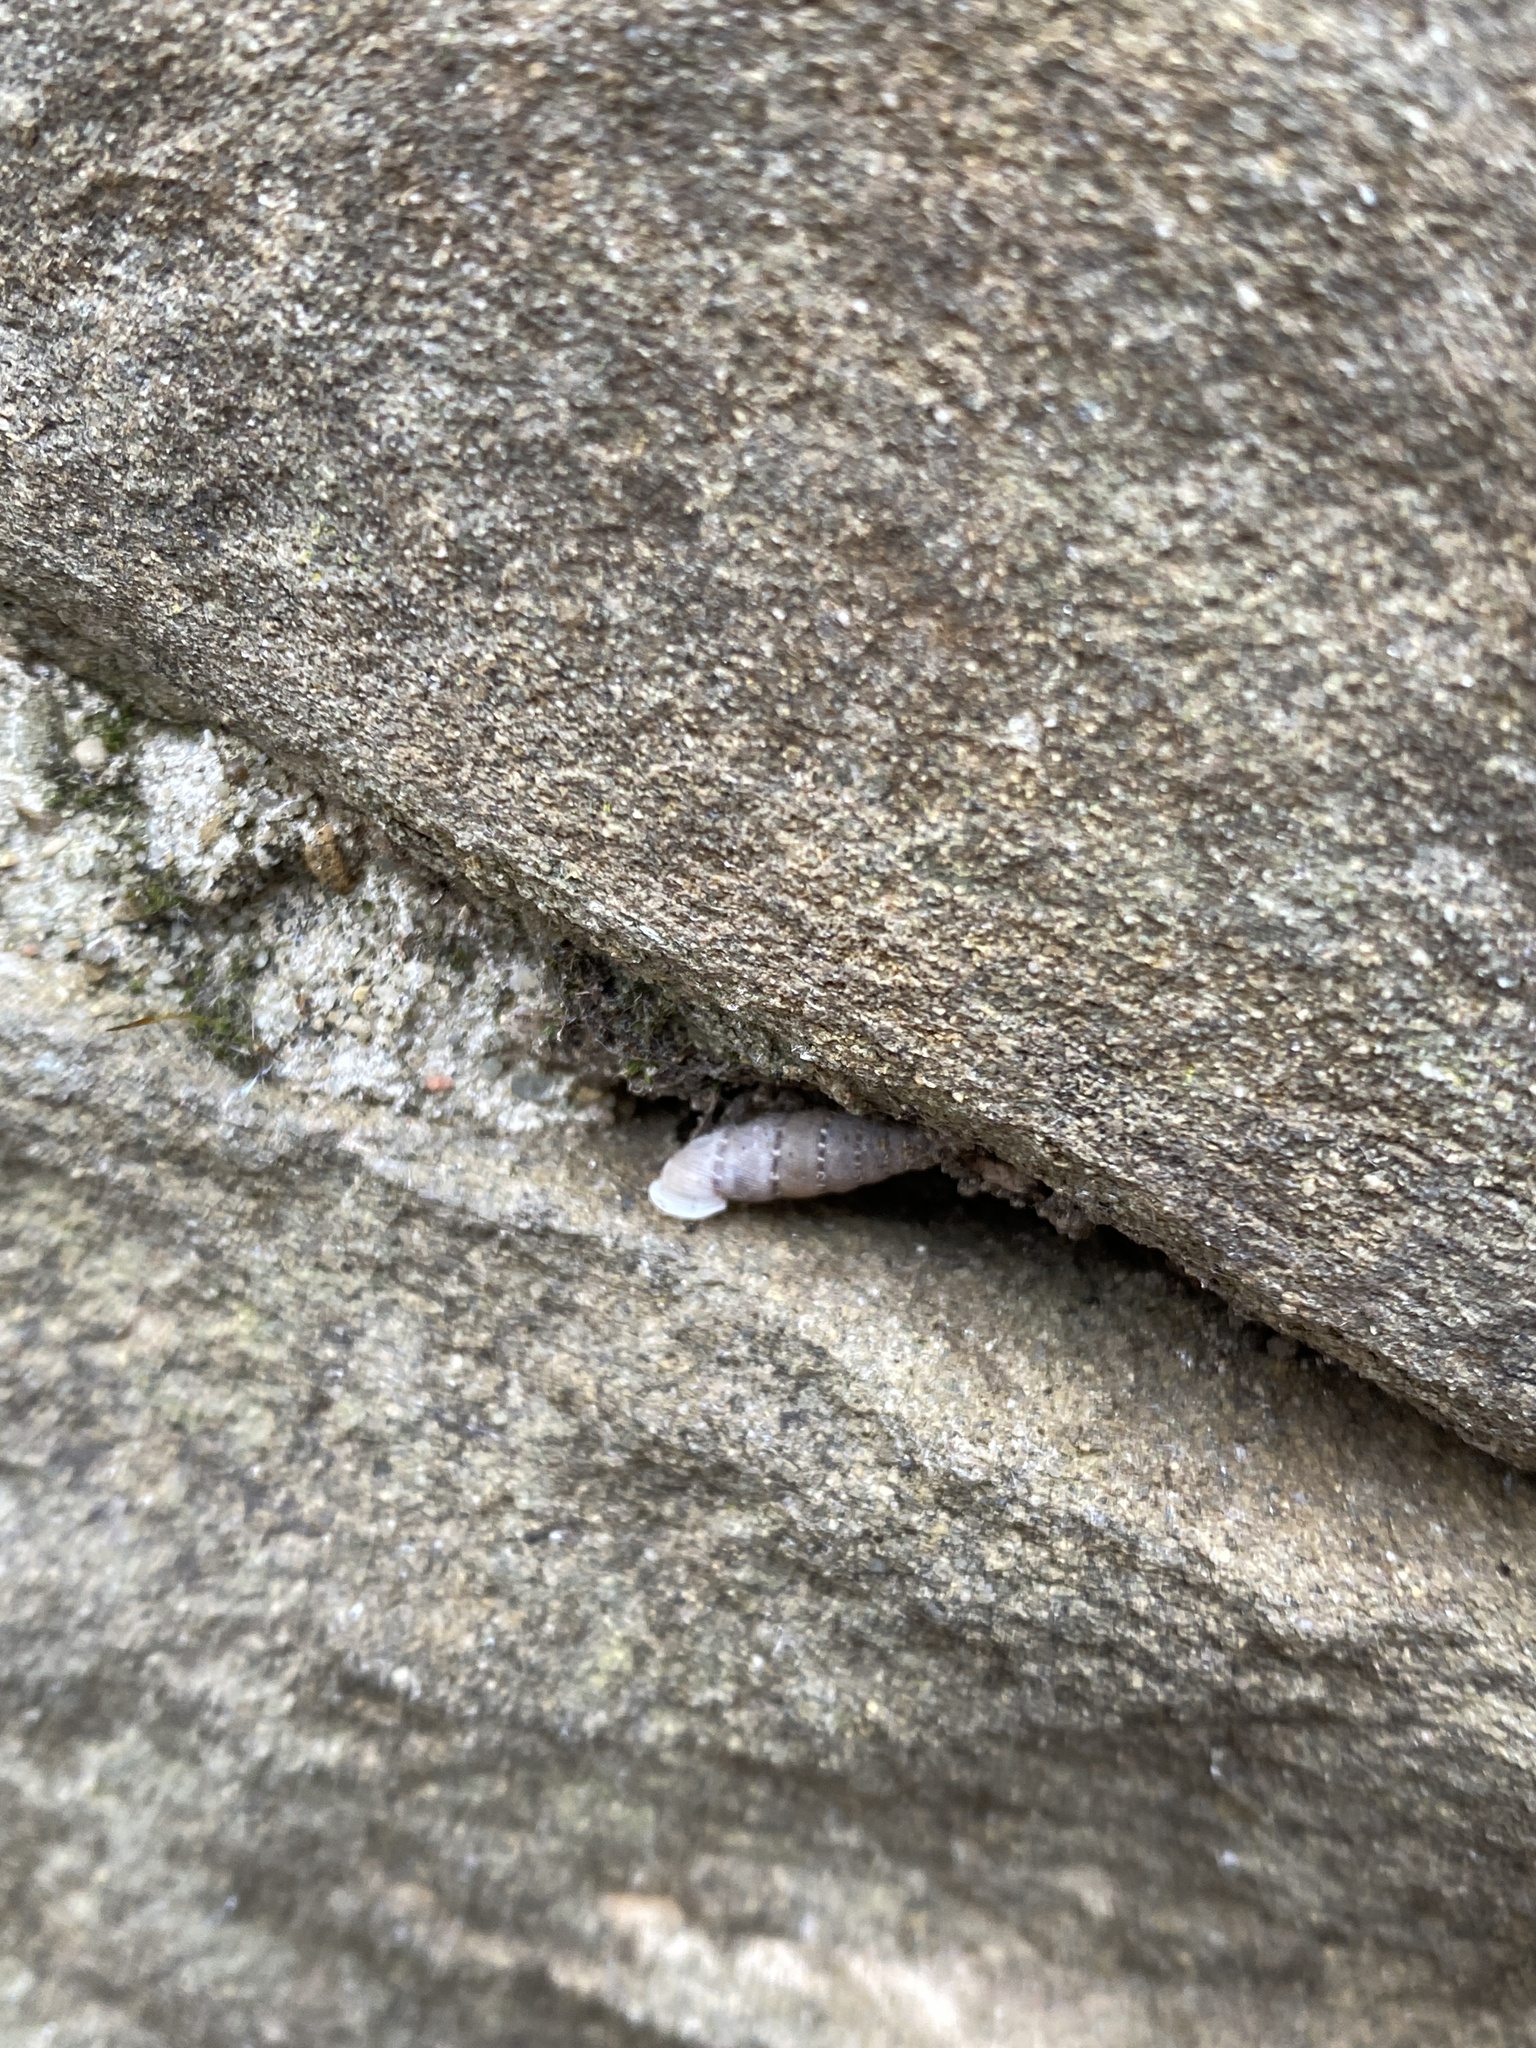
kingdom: Animalia
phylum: Mollusca
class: Gastropoda
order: Stylommatophora
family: Clausiliidae
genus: Papillifera
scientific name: Papillifera papillaris
